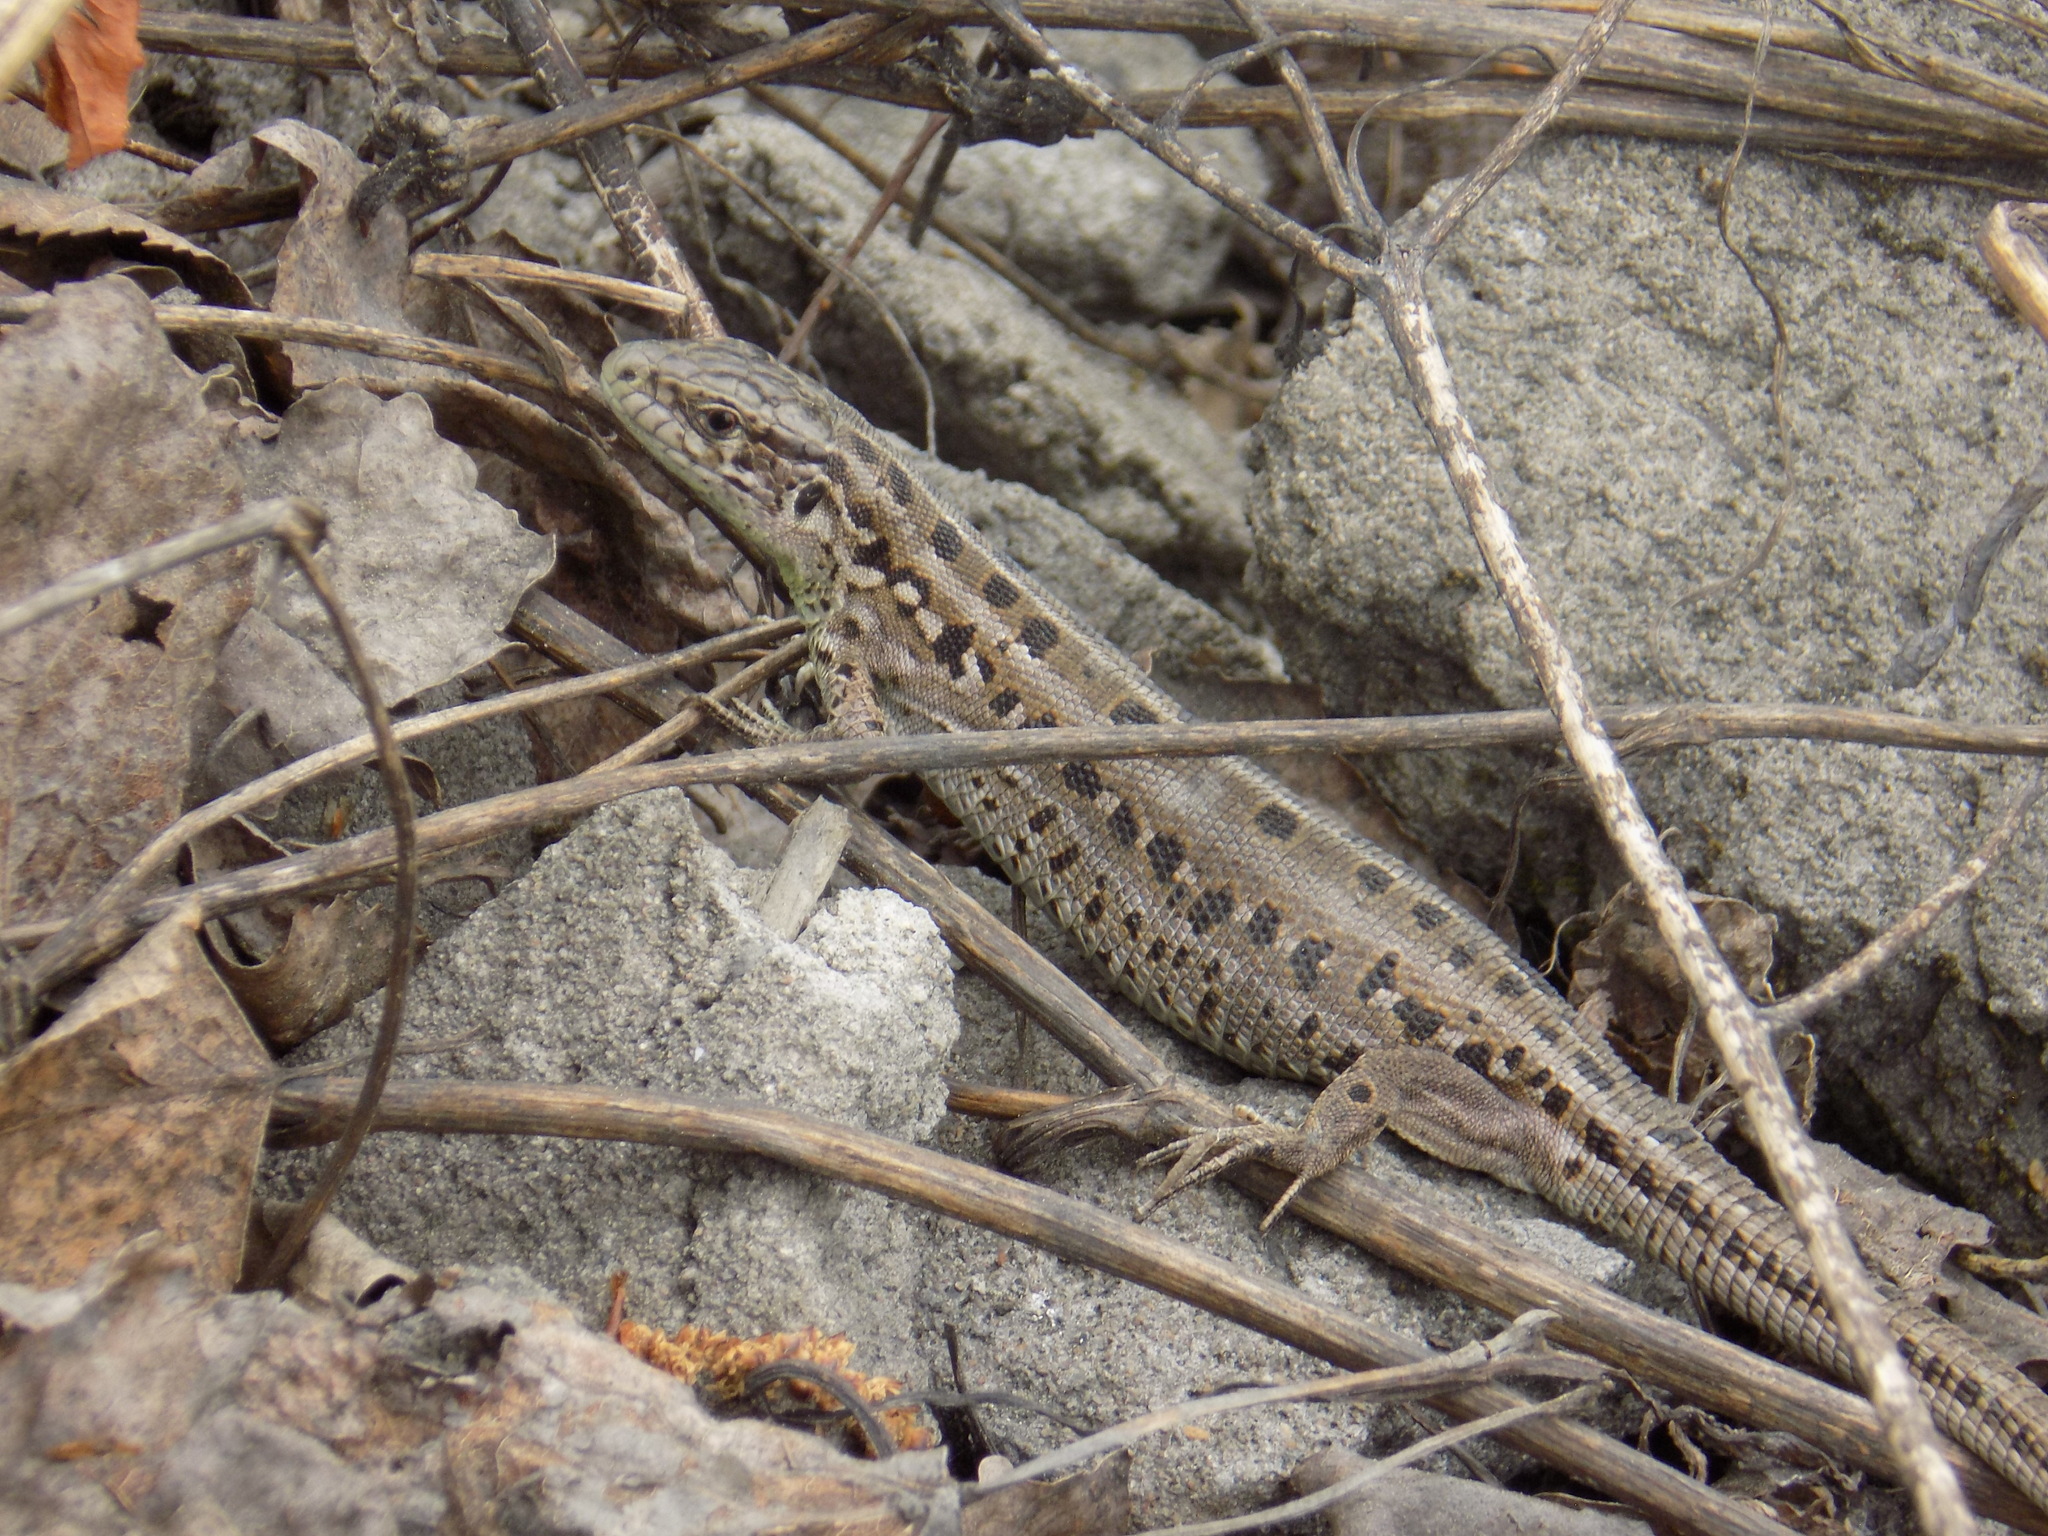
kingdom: Animalia
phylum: Chordata
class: Squamata
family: Lacertidae
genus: Lacerta
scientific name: Lacerta agilis
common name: Sand lizard
